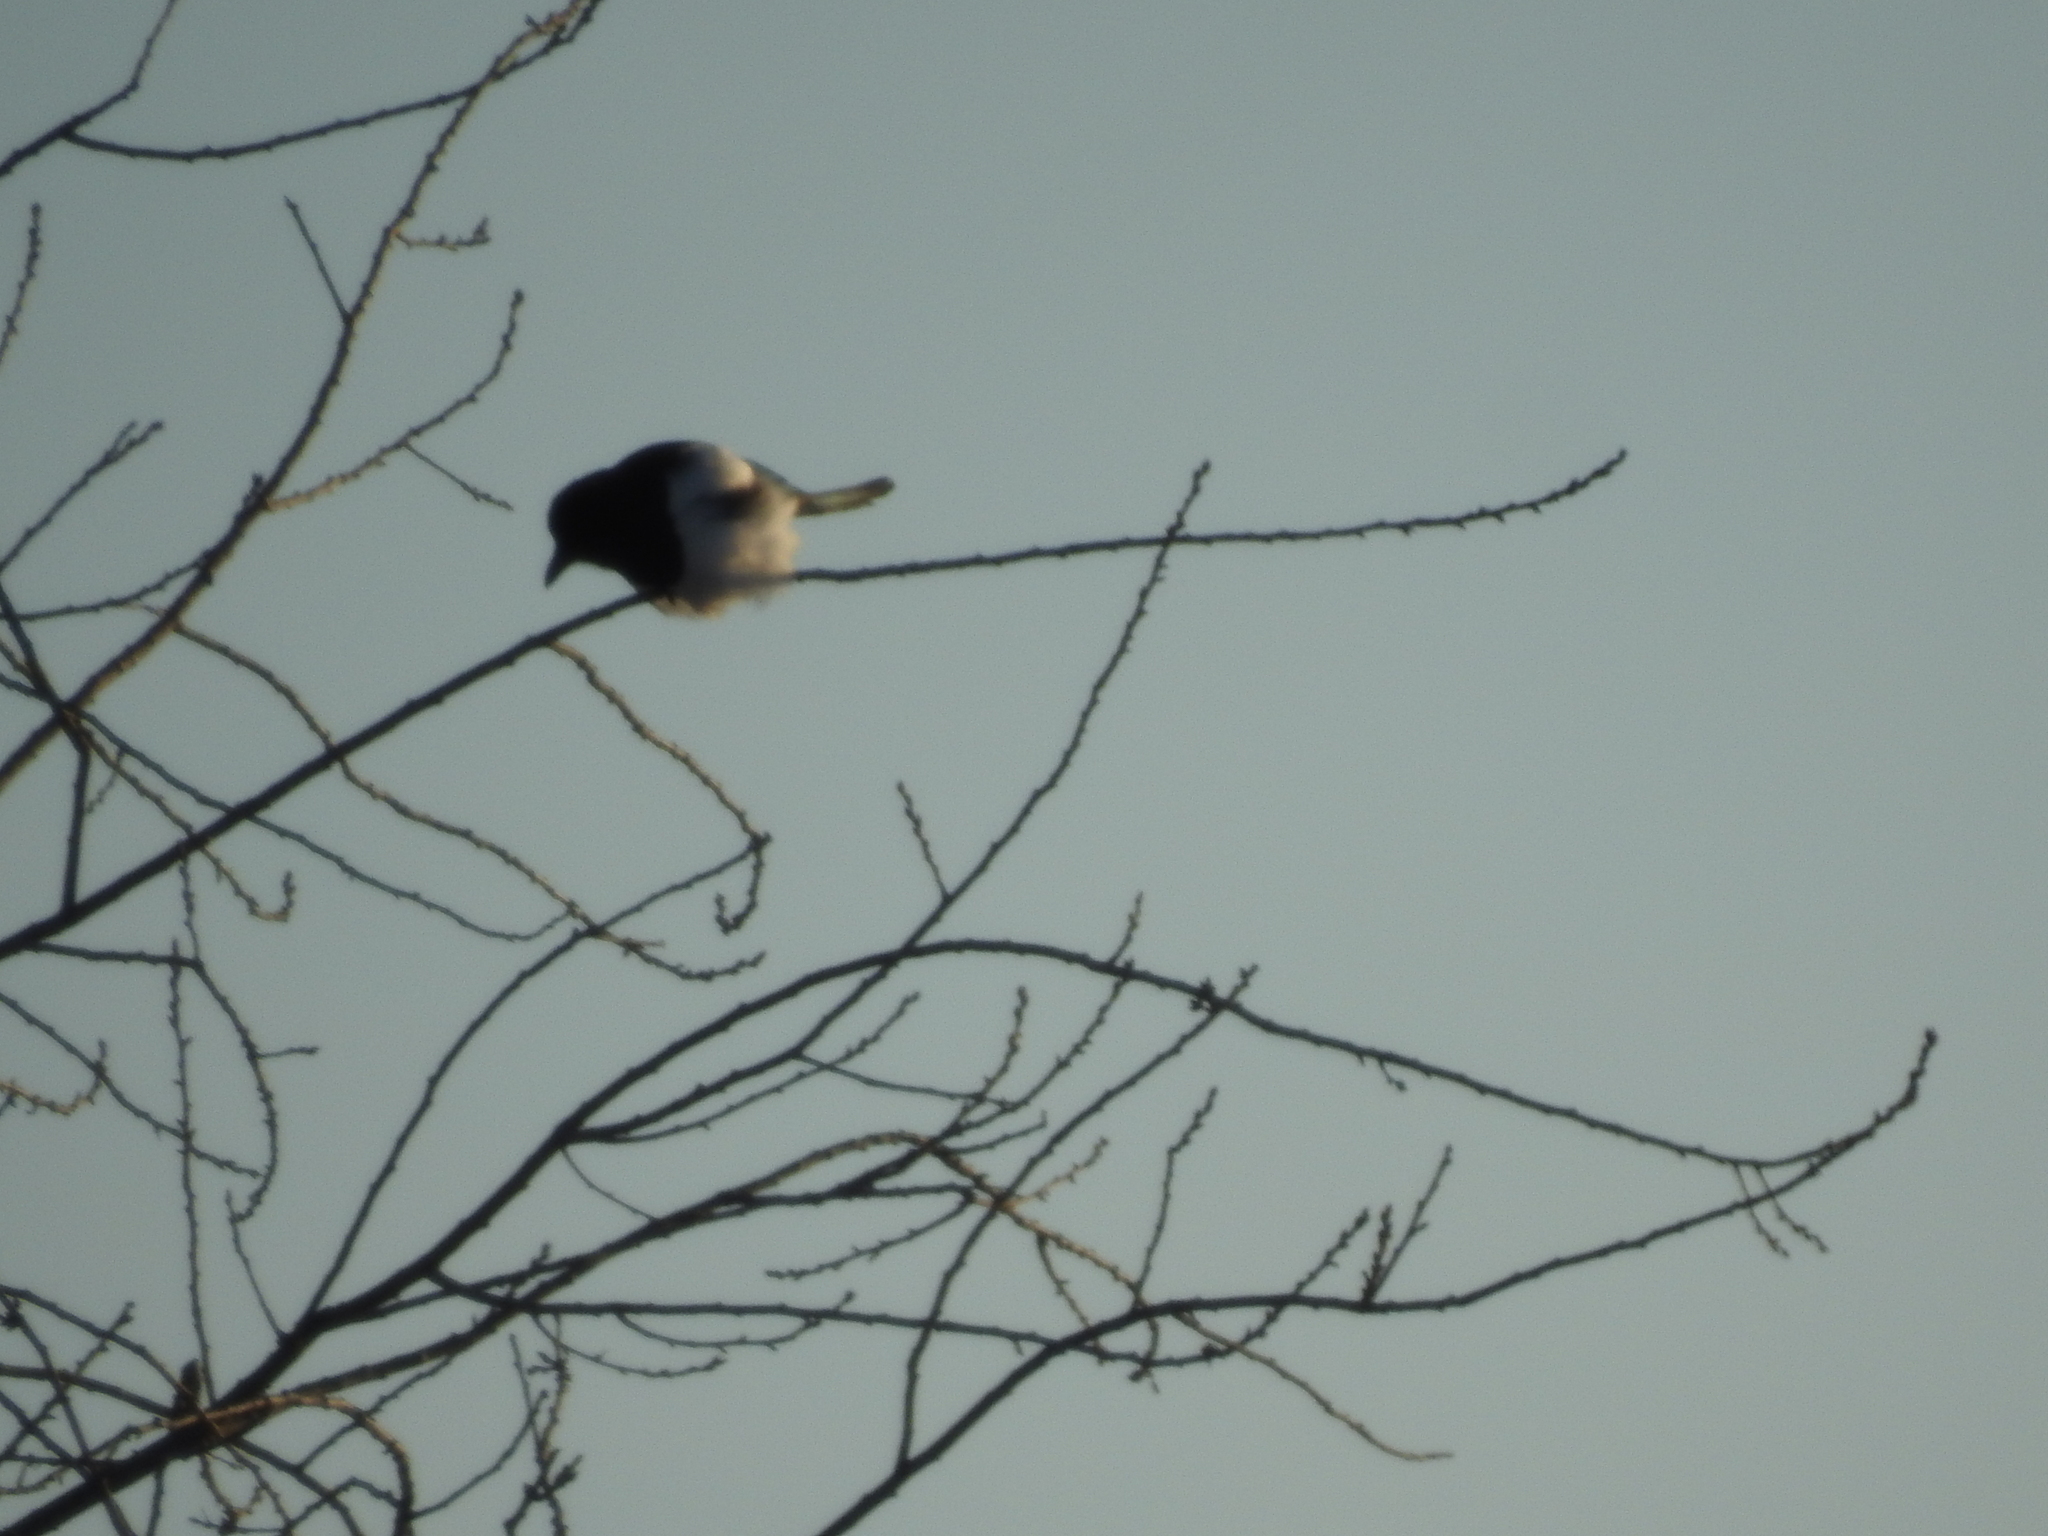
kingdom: Animalia
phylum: Chordata
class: Aves
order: Passeriformes
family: Corvidae
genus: Pica
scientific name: Pica pica
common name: Eurasian magpie
